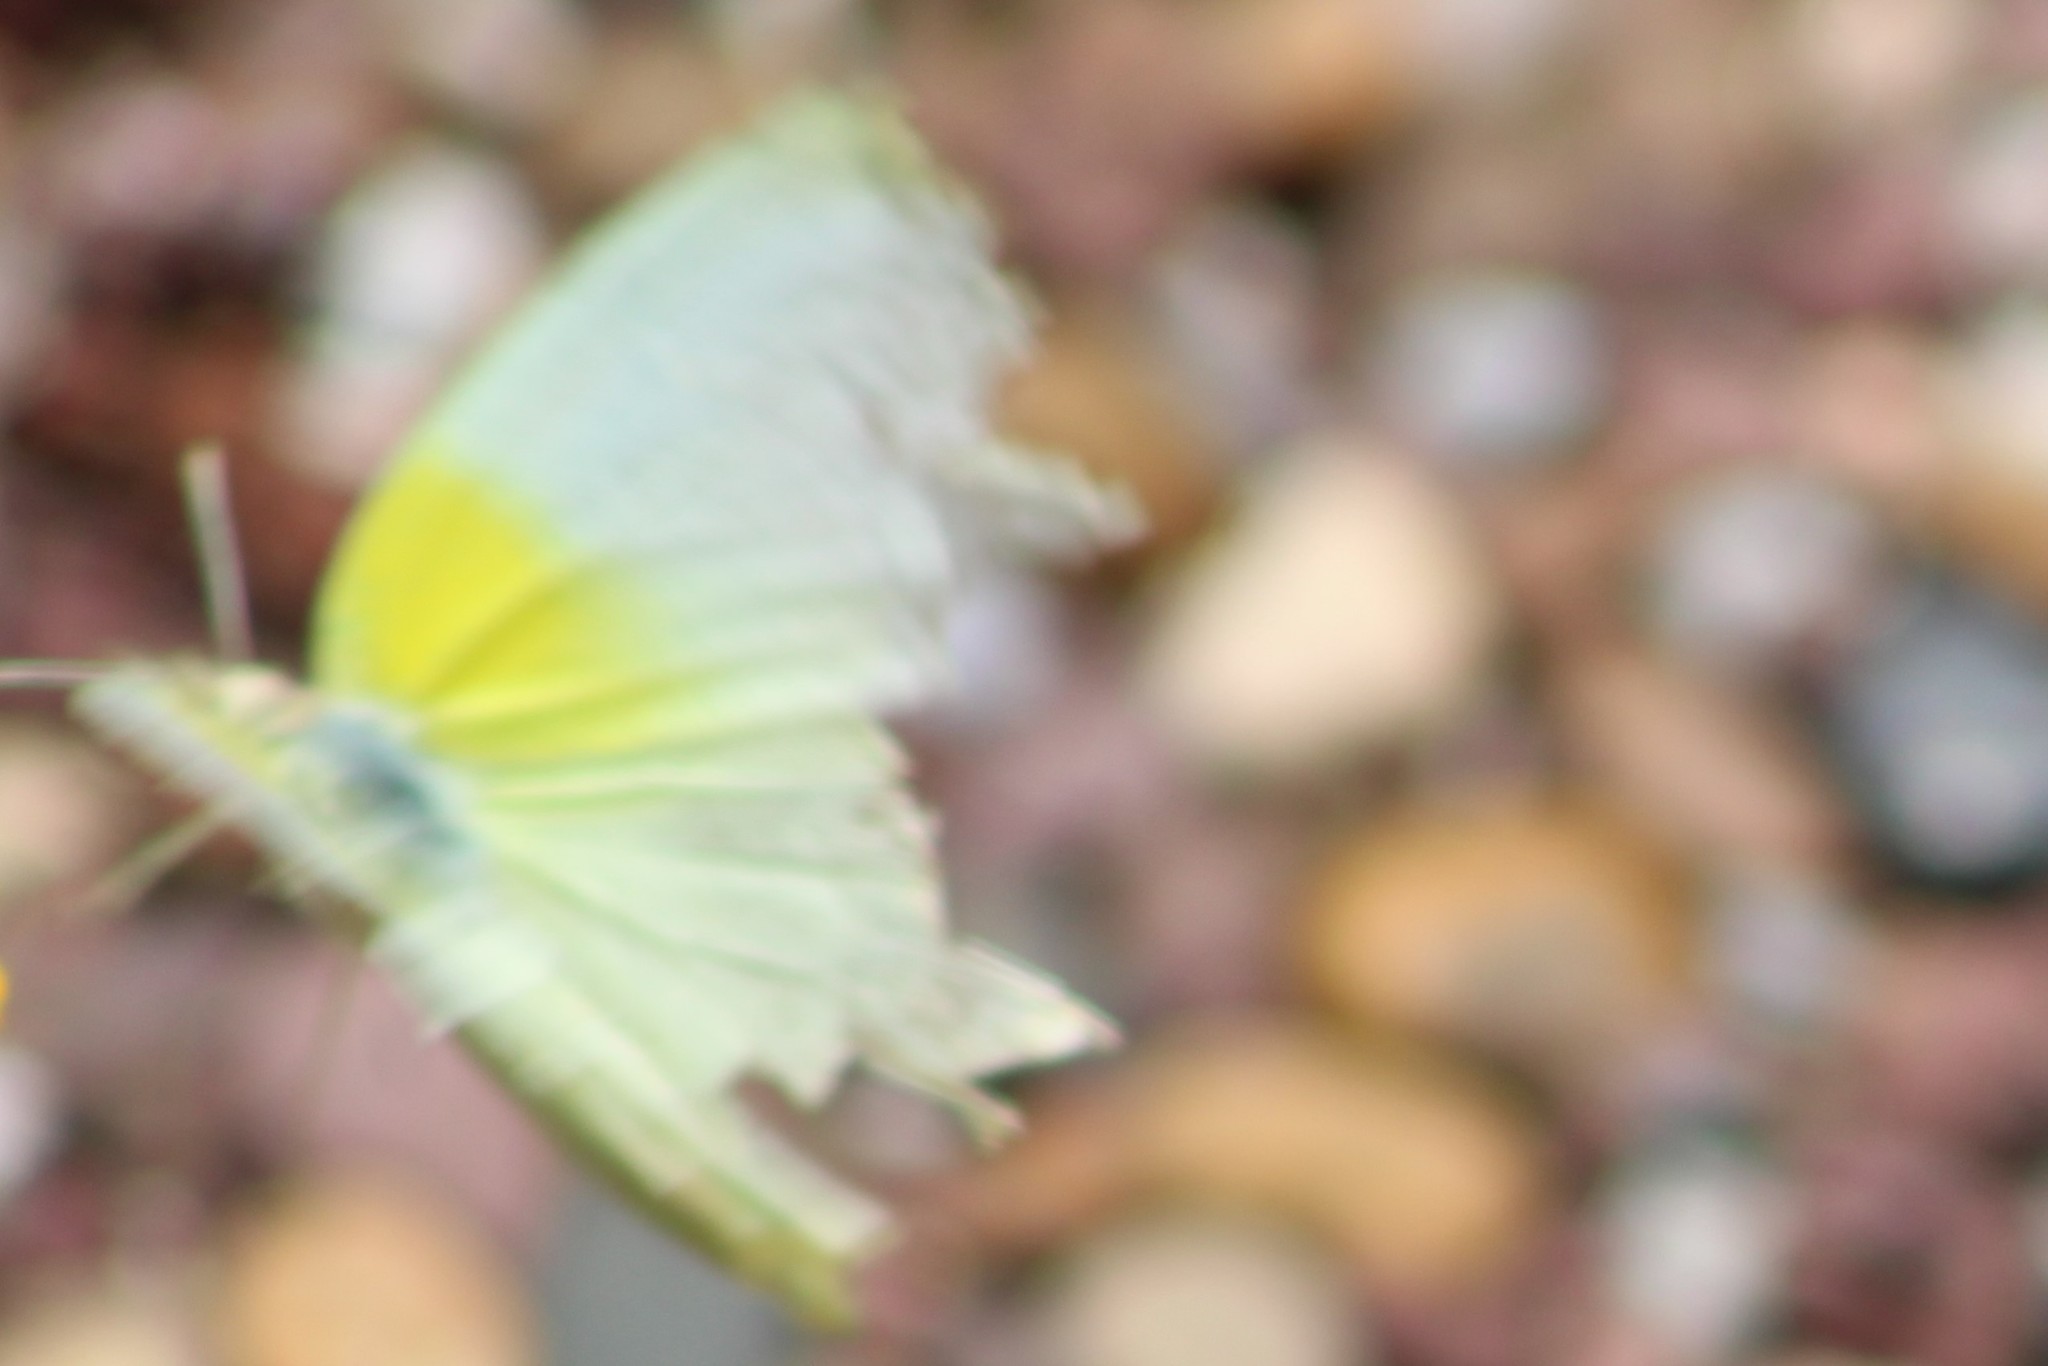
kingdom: Animalia
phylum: Arthropoda
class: Insecta
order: Lepidoptera
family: Pieridae
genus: Kricogonia
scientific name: Kricogonia lyside
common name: Guayacan sulphur,
